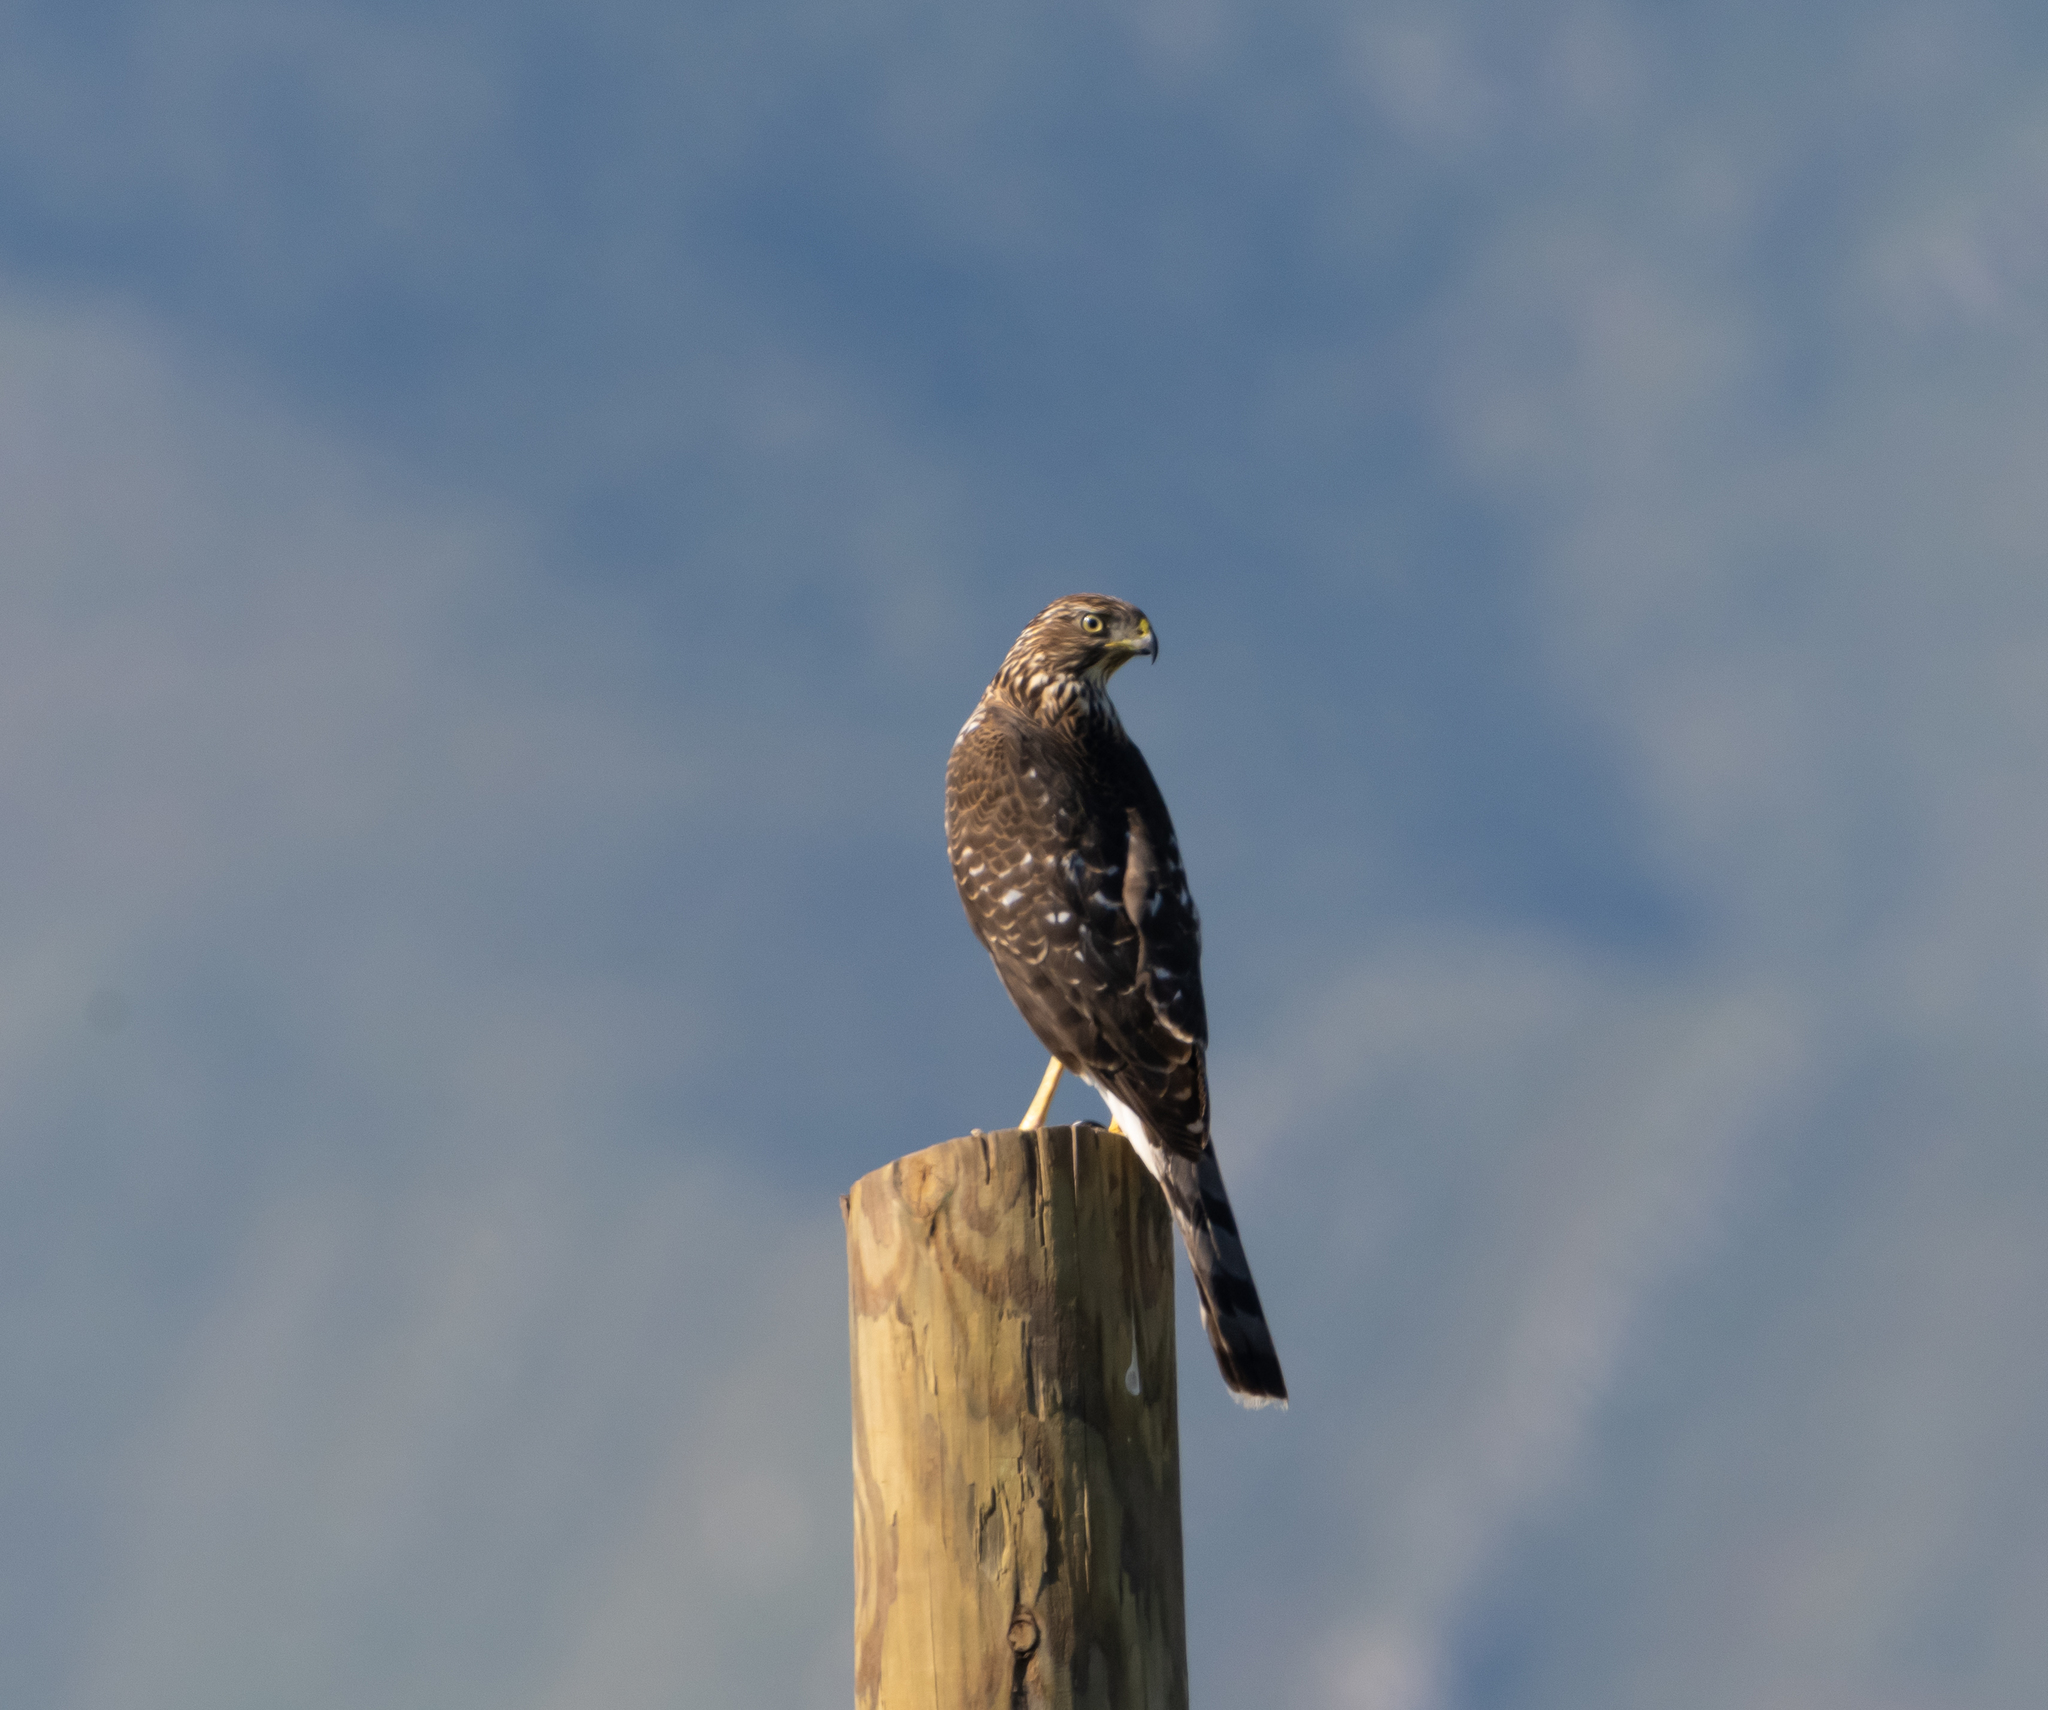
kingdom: Animalia
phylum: Chordata
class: Aves
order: Accipitriformes
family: Accipitridae
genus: Accipiter
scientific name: Accipiter cooperii
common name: Cooper's hawk
